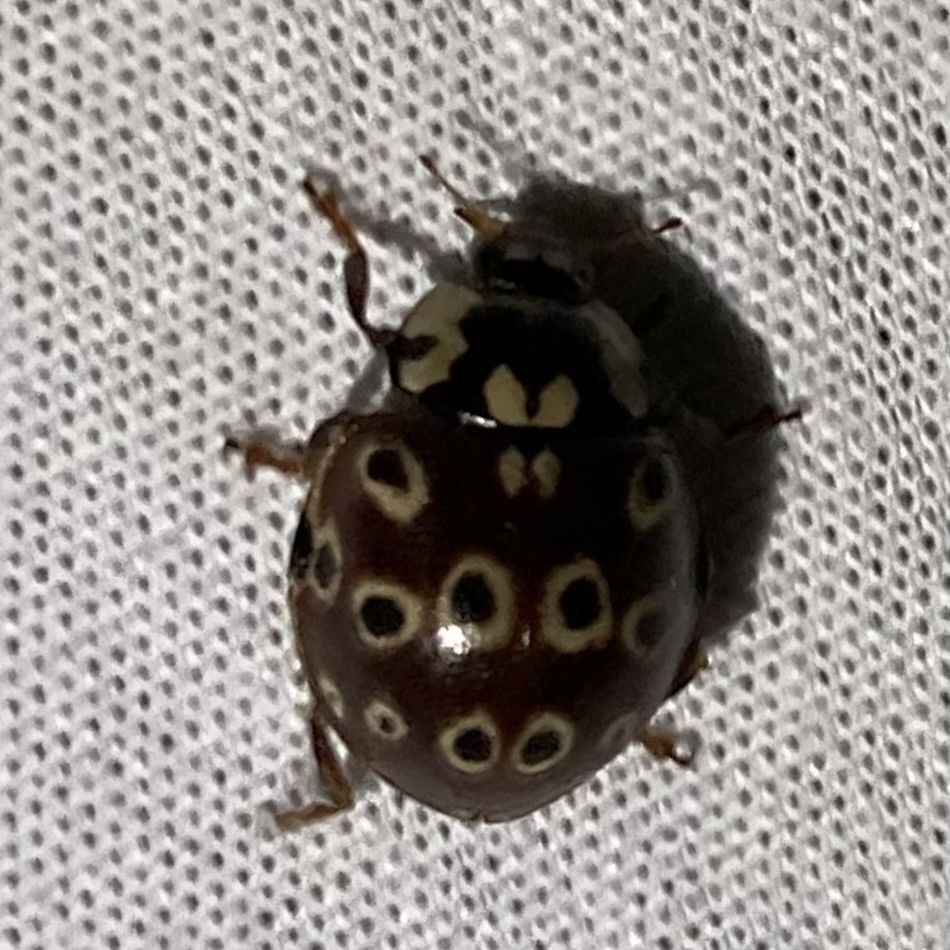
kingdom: Animalia
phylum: Arthropoda
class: Insecta
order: Coleoptera
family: Coccinellidae
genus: Anatis
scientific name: Anatis mali
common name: Eye-spotted lady beetle
